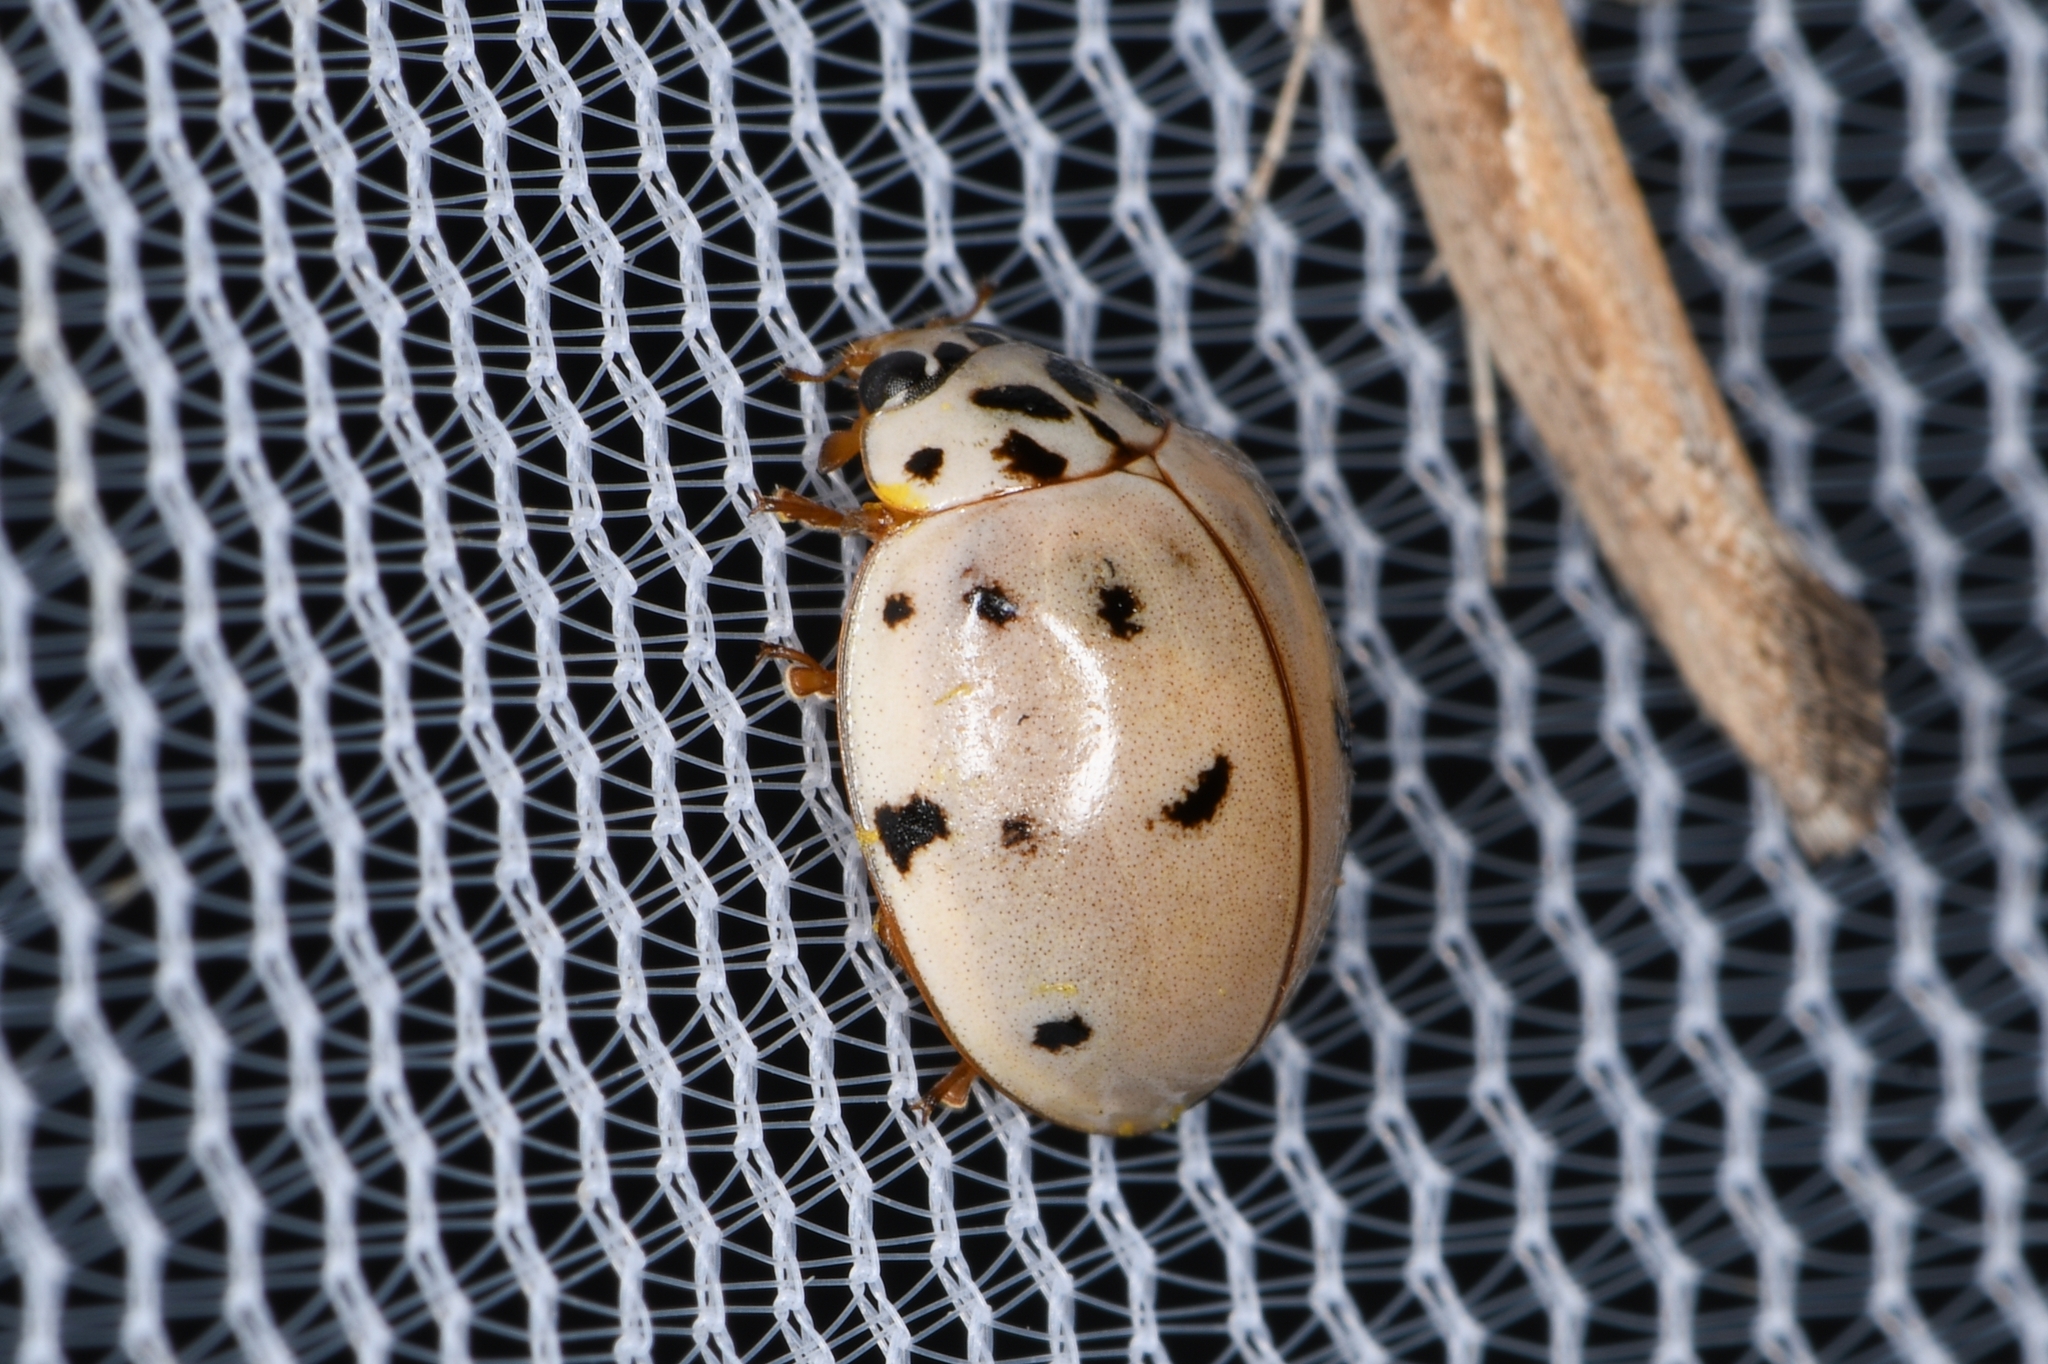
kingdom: Animalia
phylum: Arthropoda
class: Insecta
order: Coleoptera
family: Coccinellidae
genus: Olla
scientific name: Olla v-nigrum
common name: Ashy gray lady beetle
